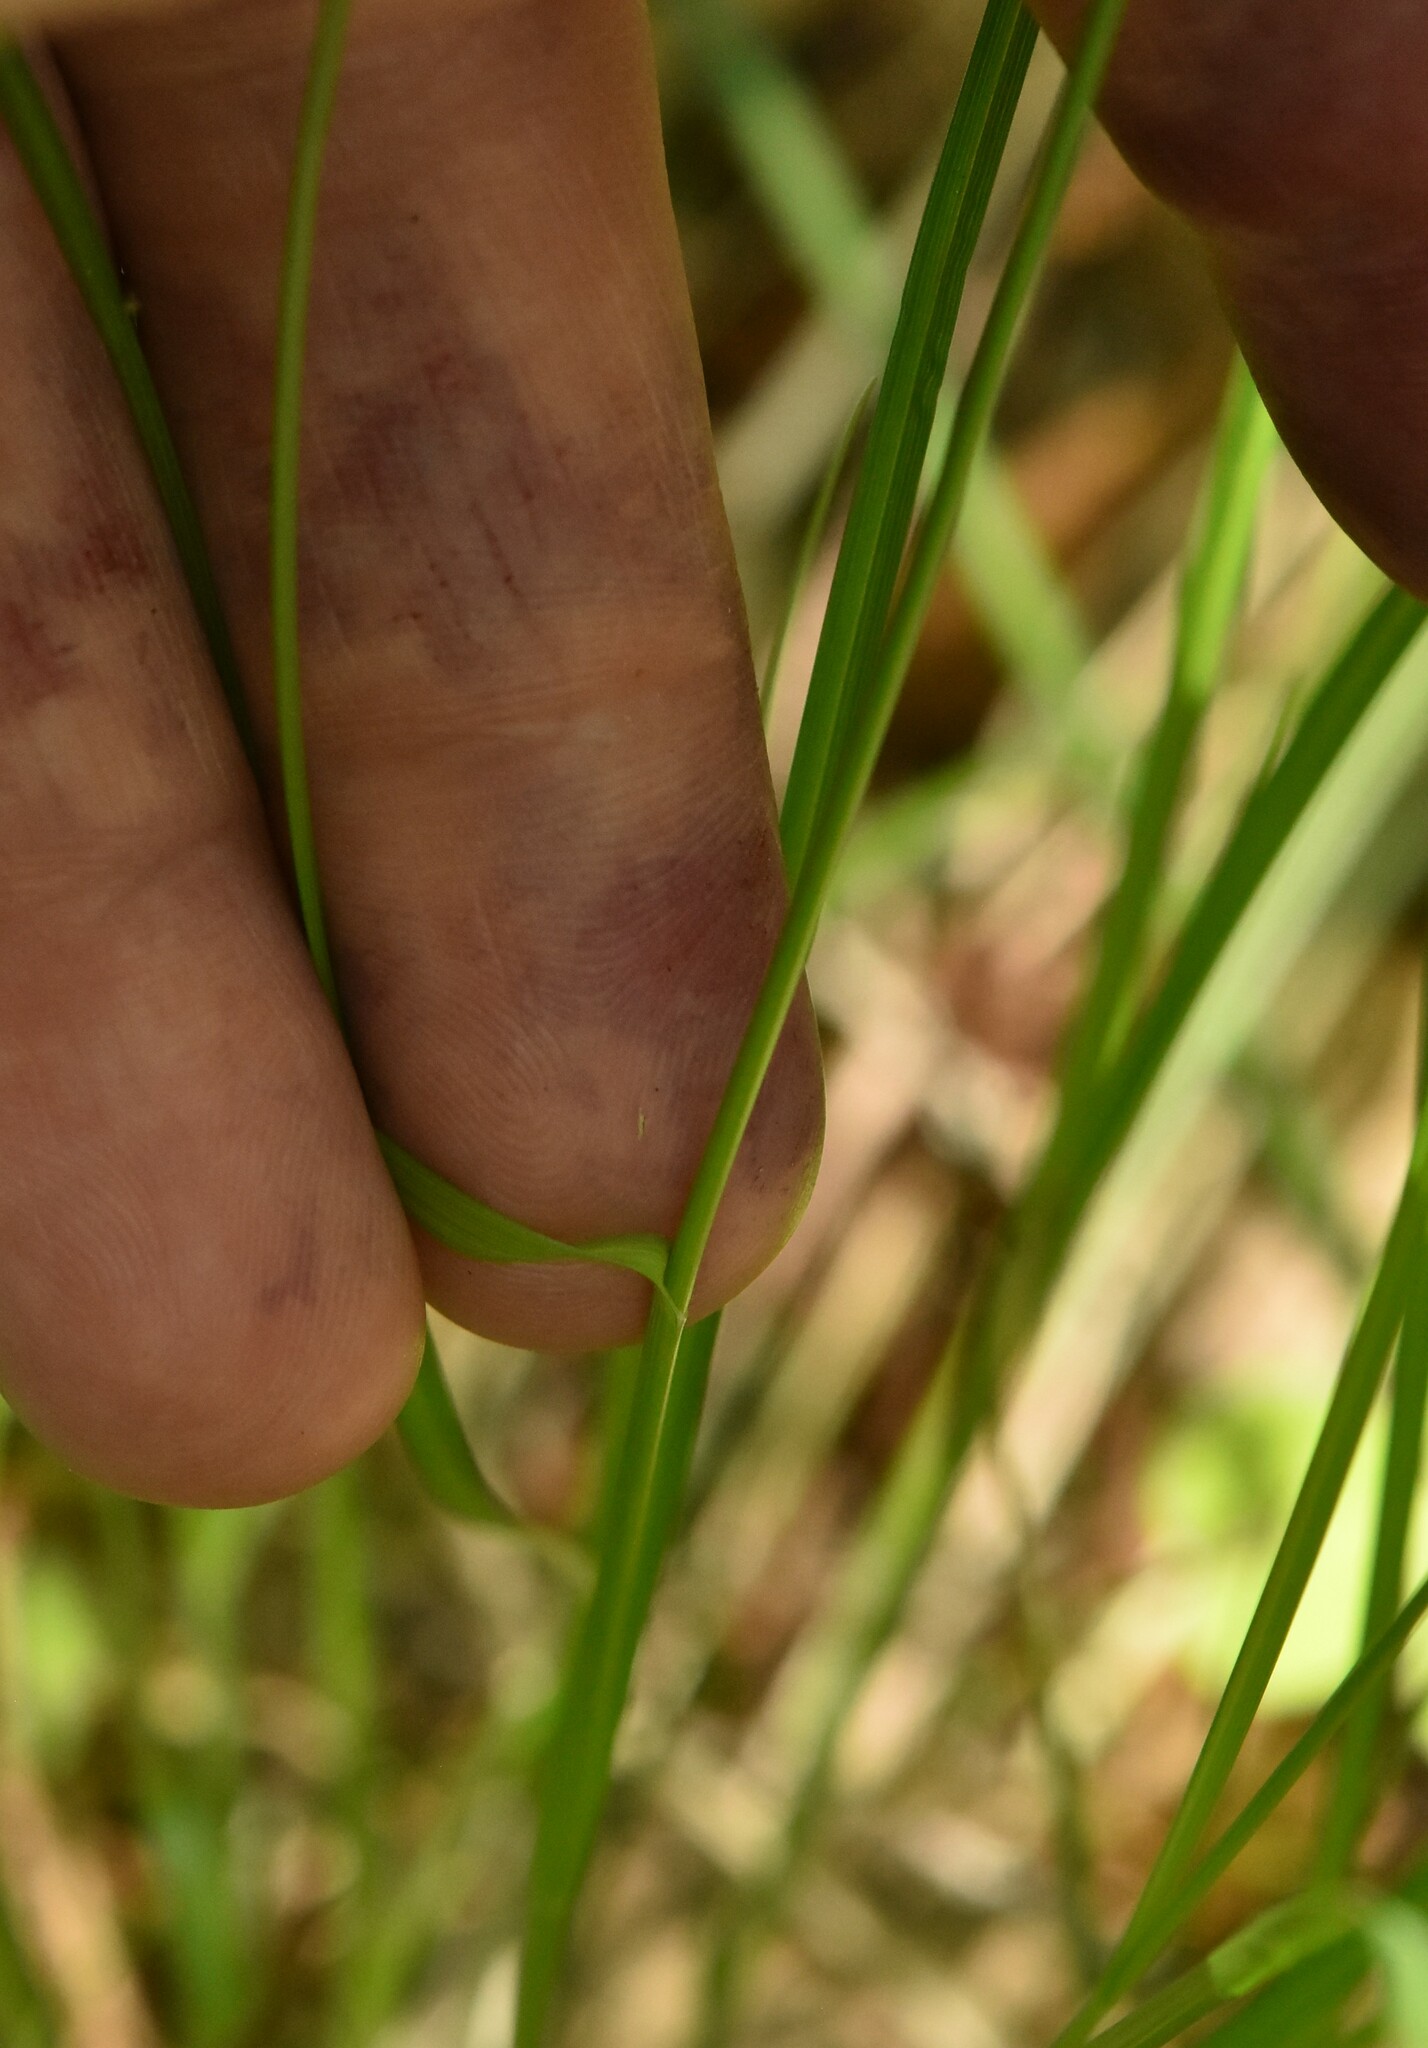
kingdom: Plantae
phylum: Tracheophyta
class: Liliopsida
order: Poales
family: Cyperaceae
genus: Carex
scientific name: Carex echinata
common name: Star sedge
